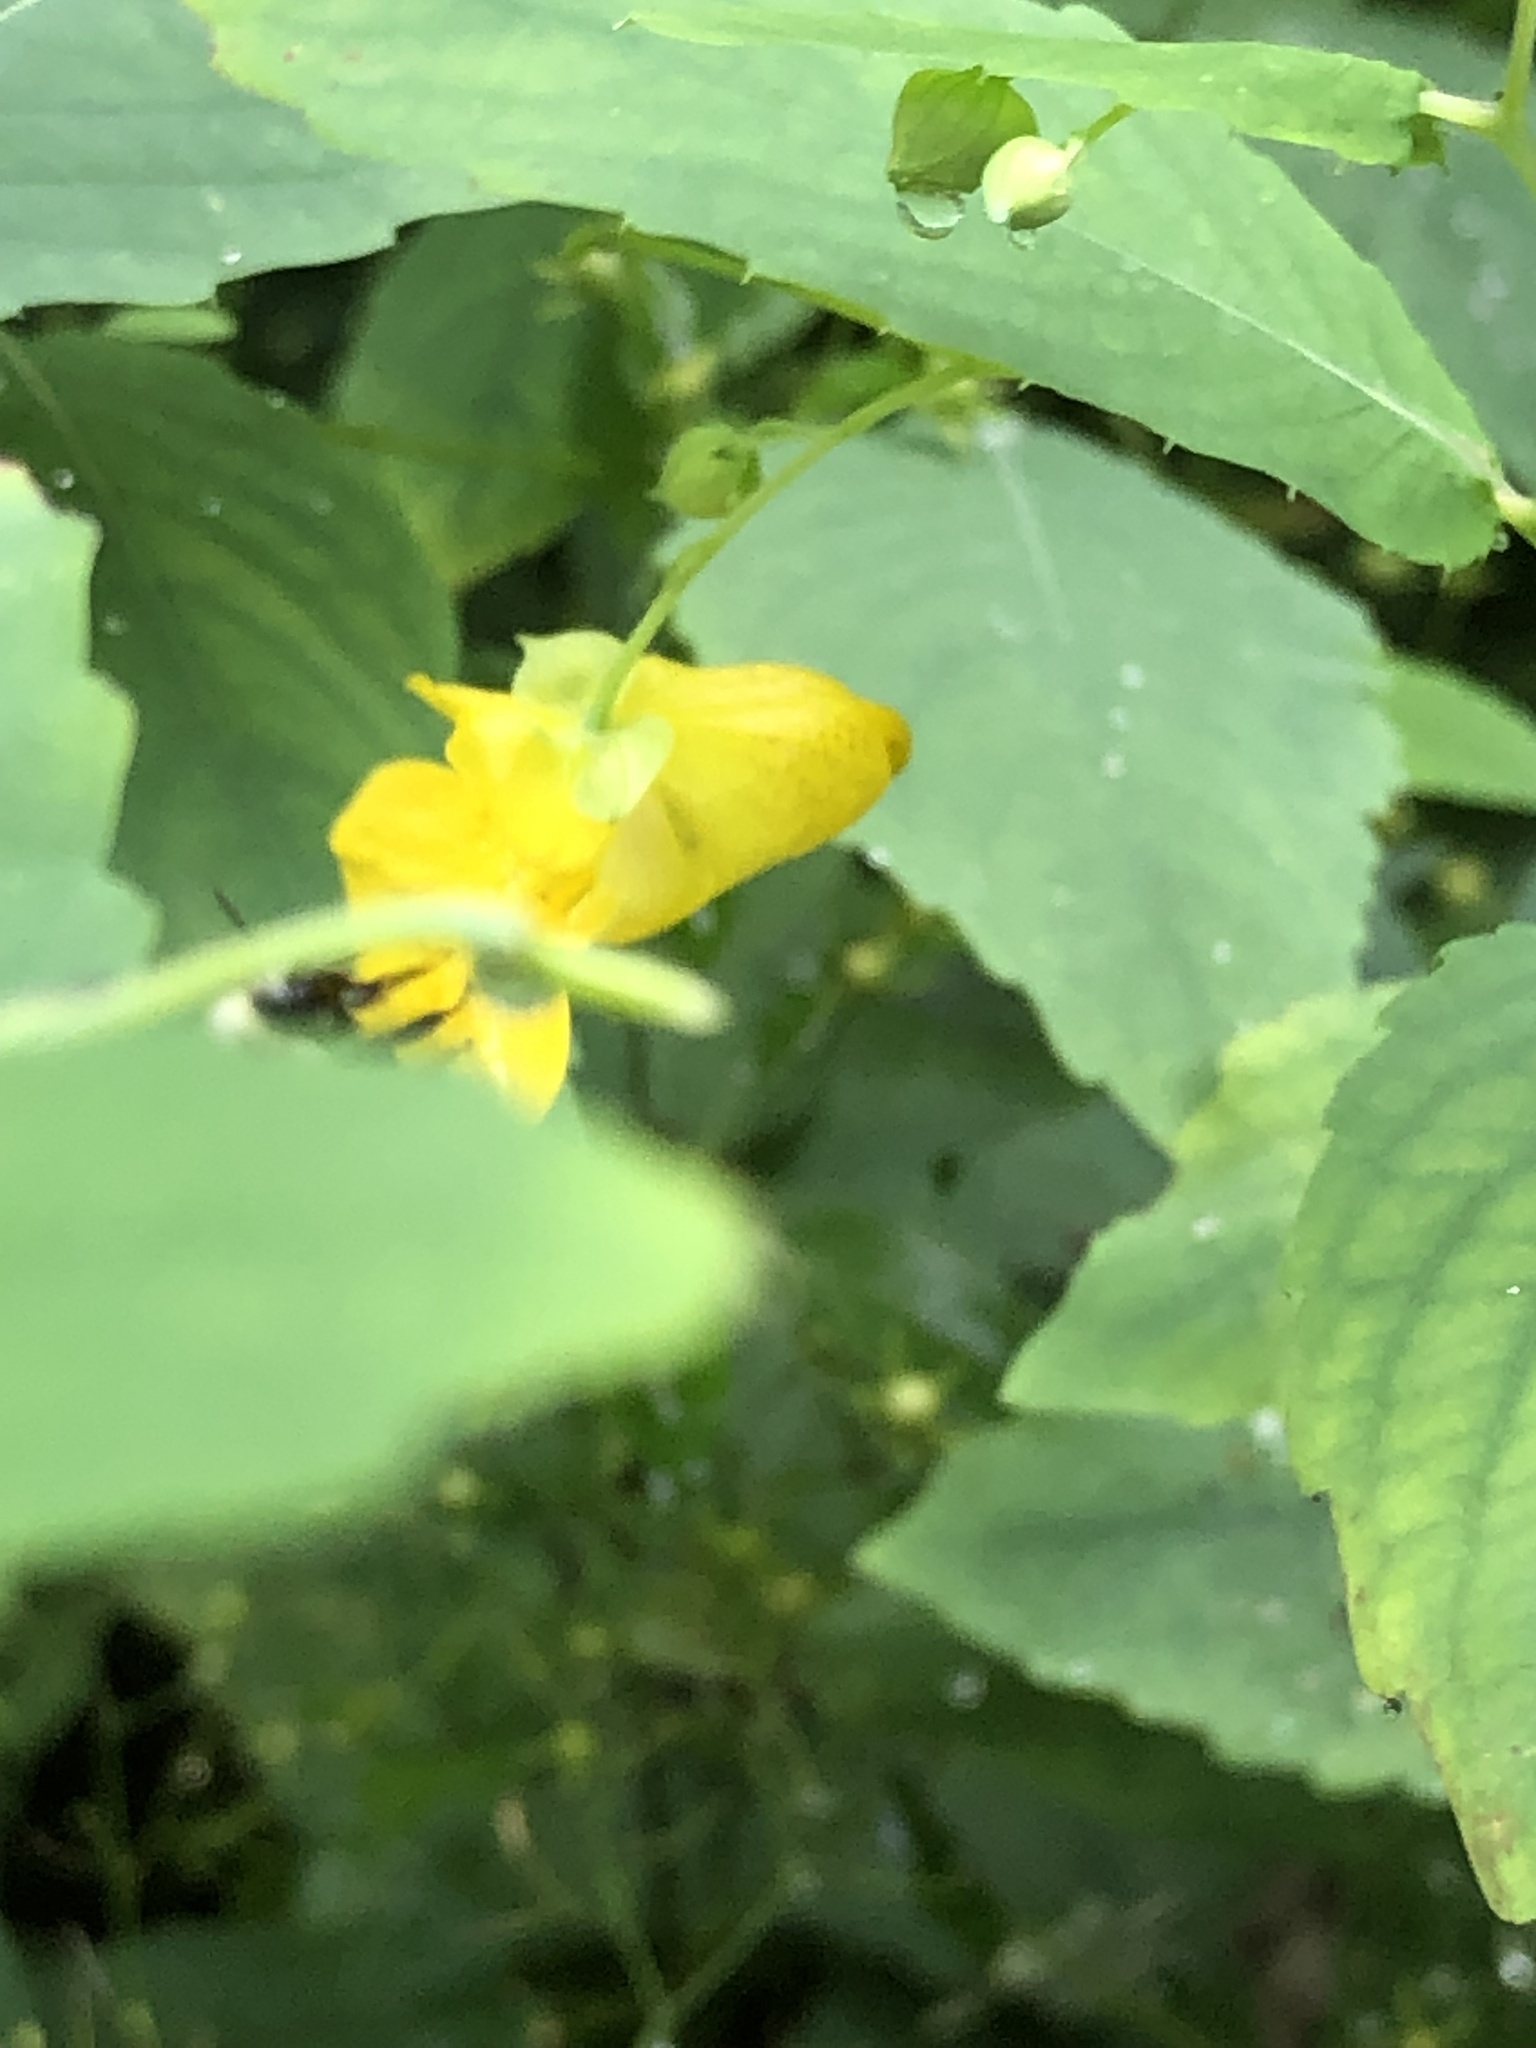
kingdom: Animalia
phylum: Arthropoda
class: Insecta
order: Hymenoptera
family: Apidae
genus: Bombus
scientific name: Bombus impatiens
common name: Common eastern bumble bee
